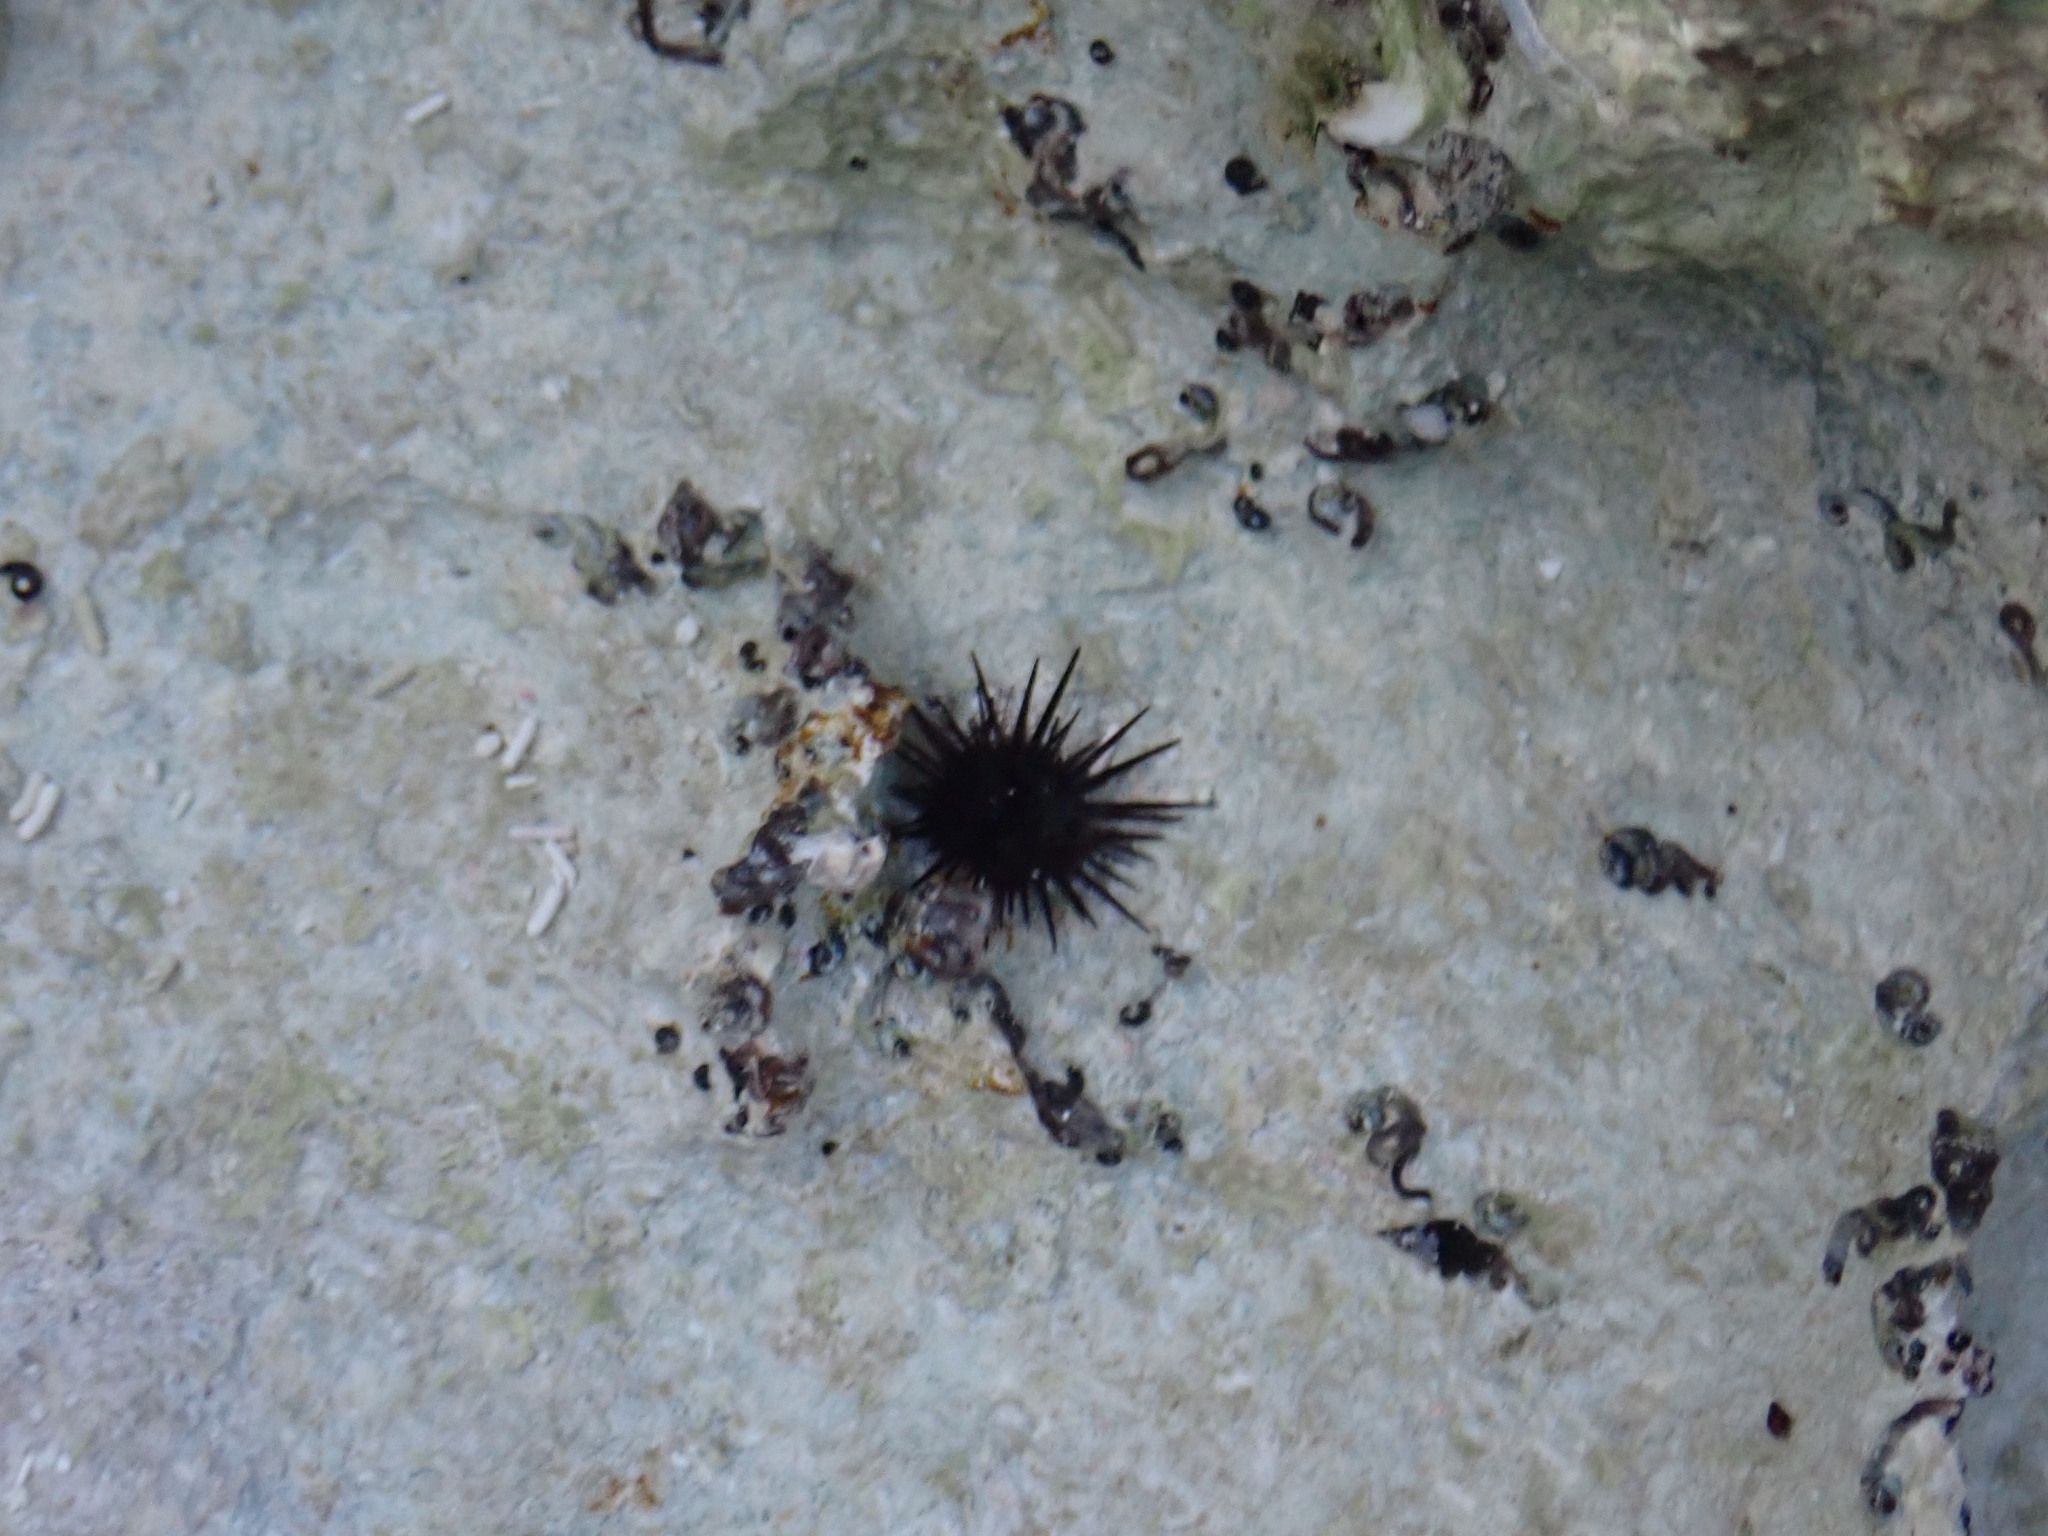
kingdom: Animalia
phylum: Echinodermata
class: Echinoidea
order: Camarodonta
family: Echinometridae
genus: Echinometra
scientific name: Echinometra lucunter
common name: Rock urchin
